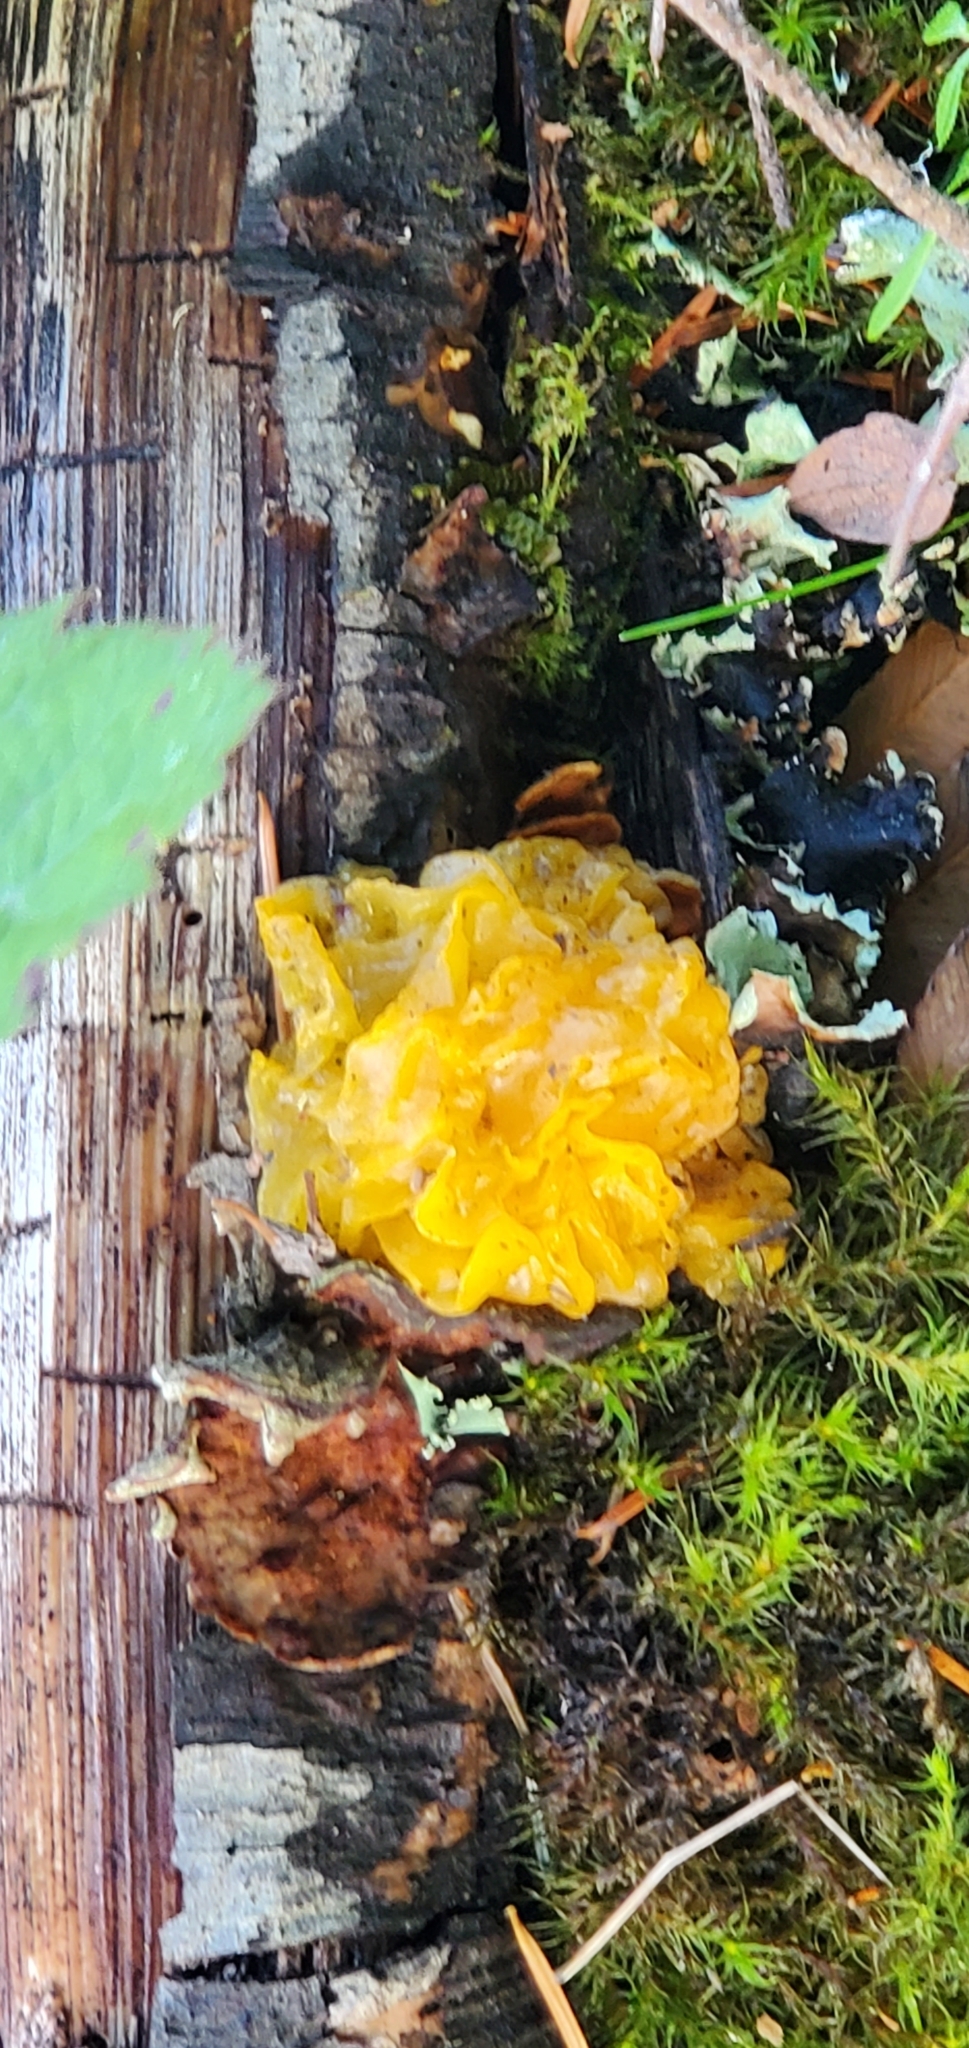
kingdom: Fungi
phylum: Basidiomycota
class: Tremellomycetes
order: Tremellales
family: Naemateliaceae
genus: Naematelia
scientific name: Naematelia aurantia
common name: Golden ear
